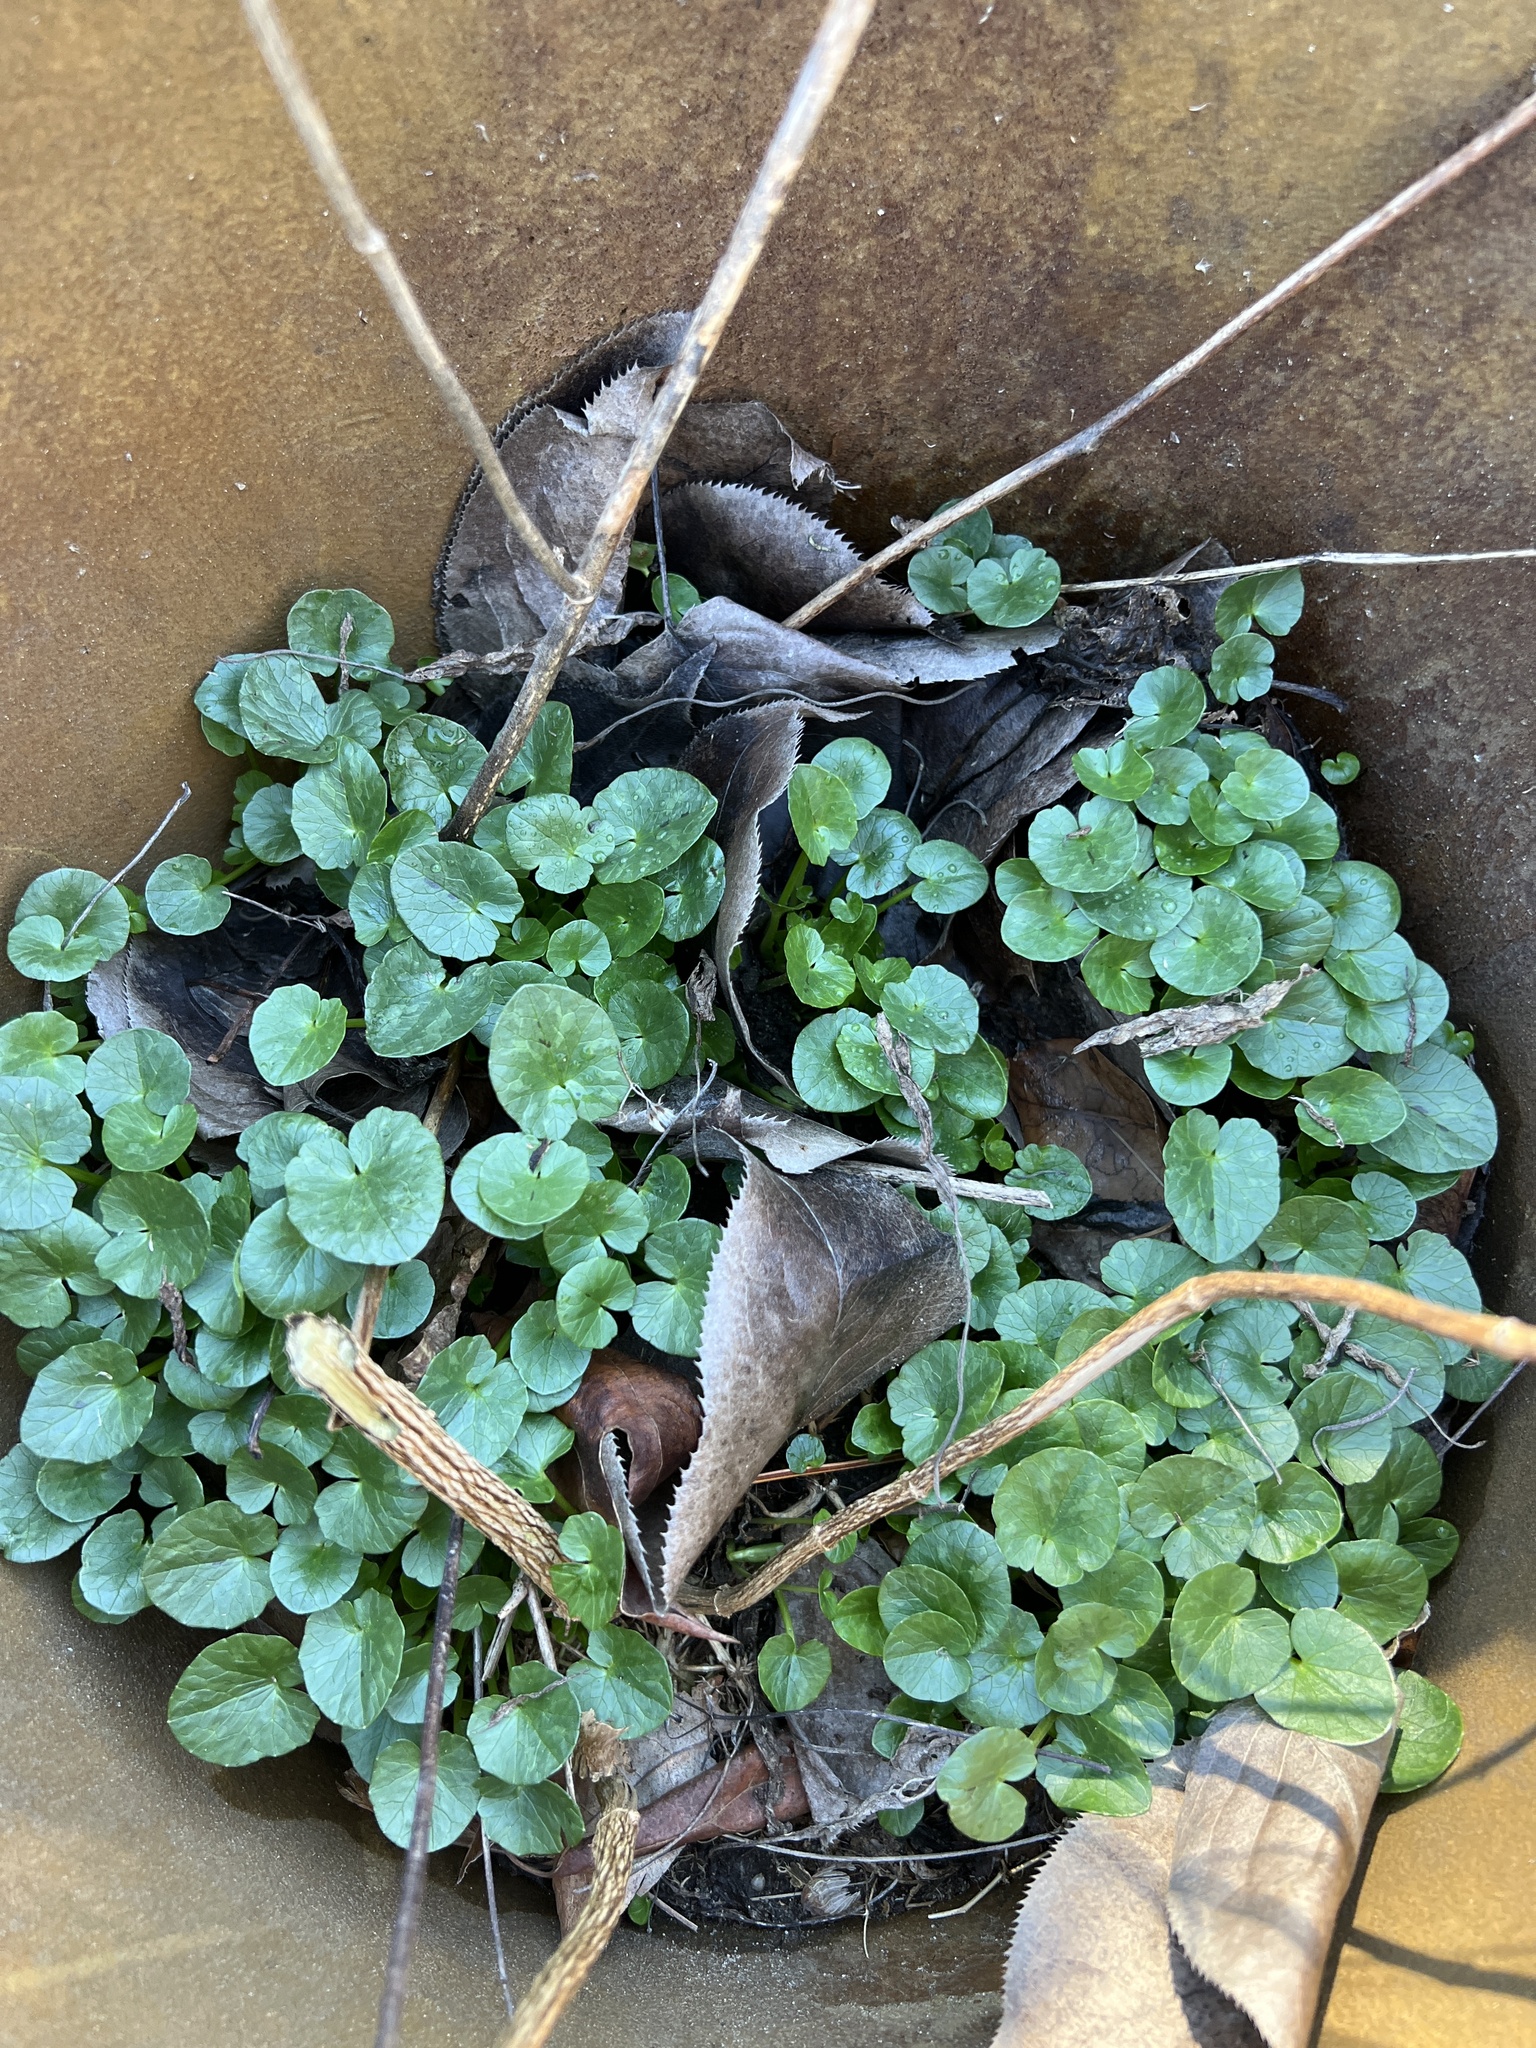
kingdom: Plantae
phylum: Tracheophyta
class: Magnoliopsida
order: Ranunculales
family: Ranunculaceae
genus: Ficaria
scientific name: Ficaria verna
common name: Lesser celandine
